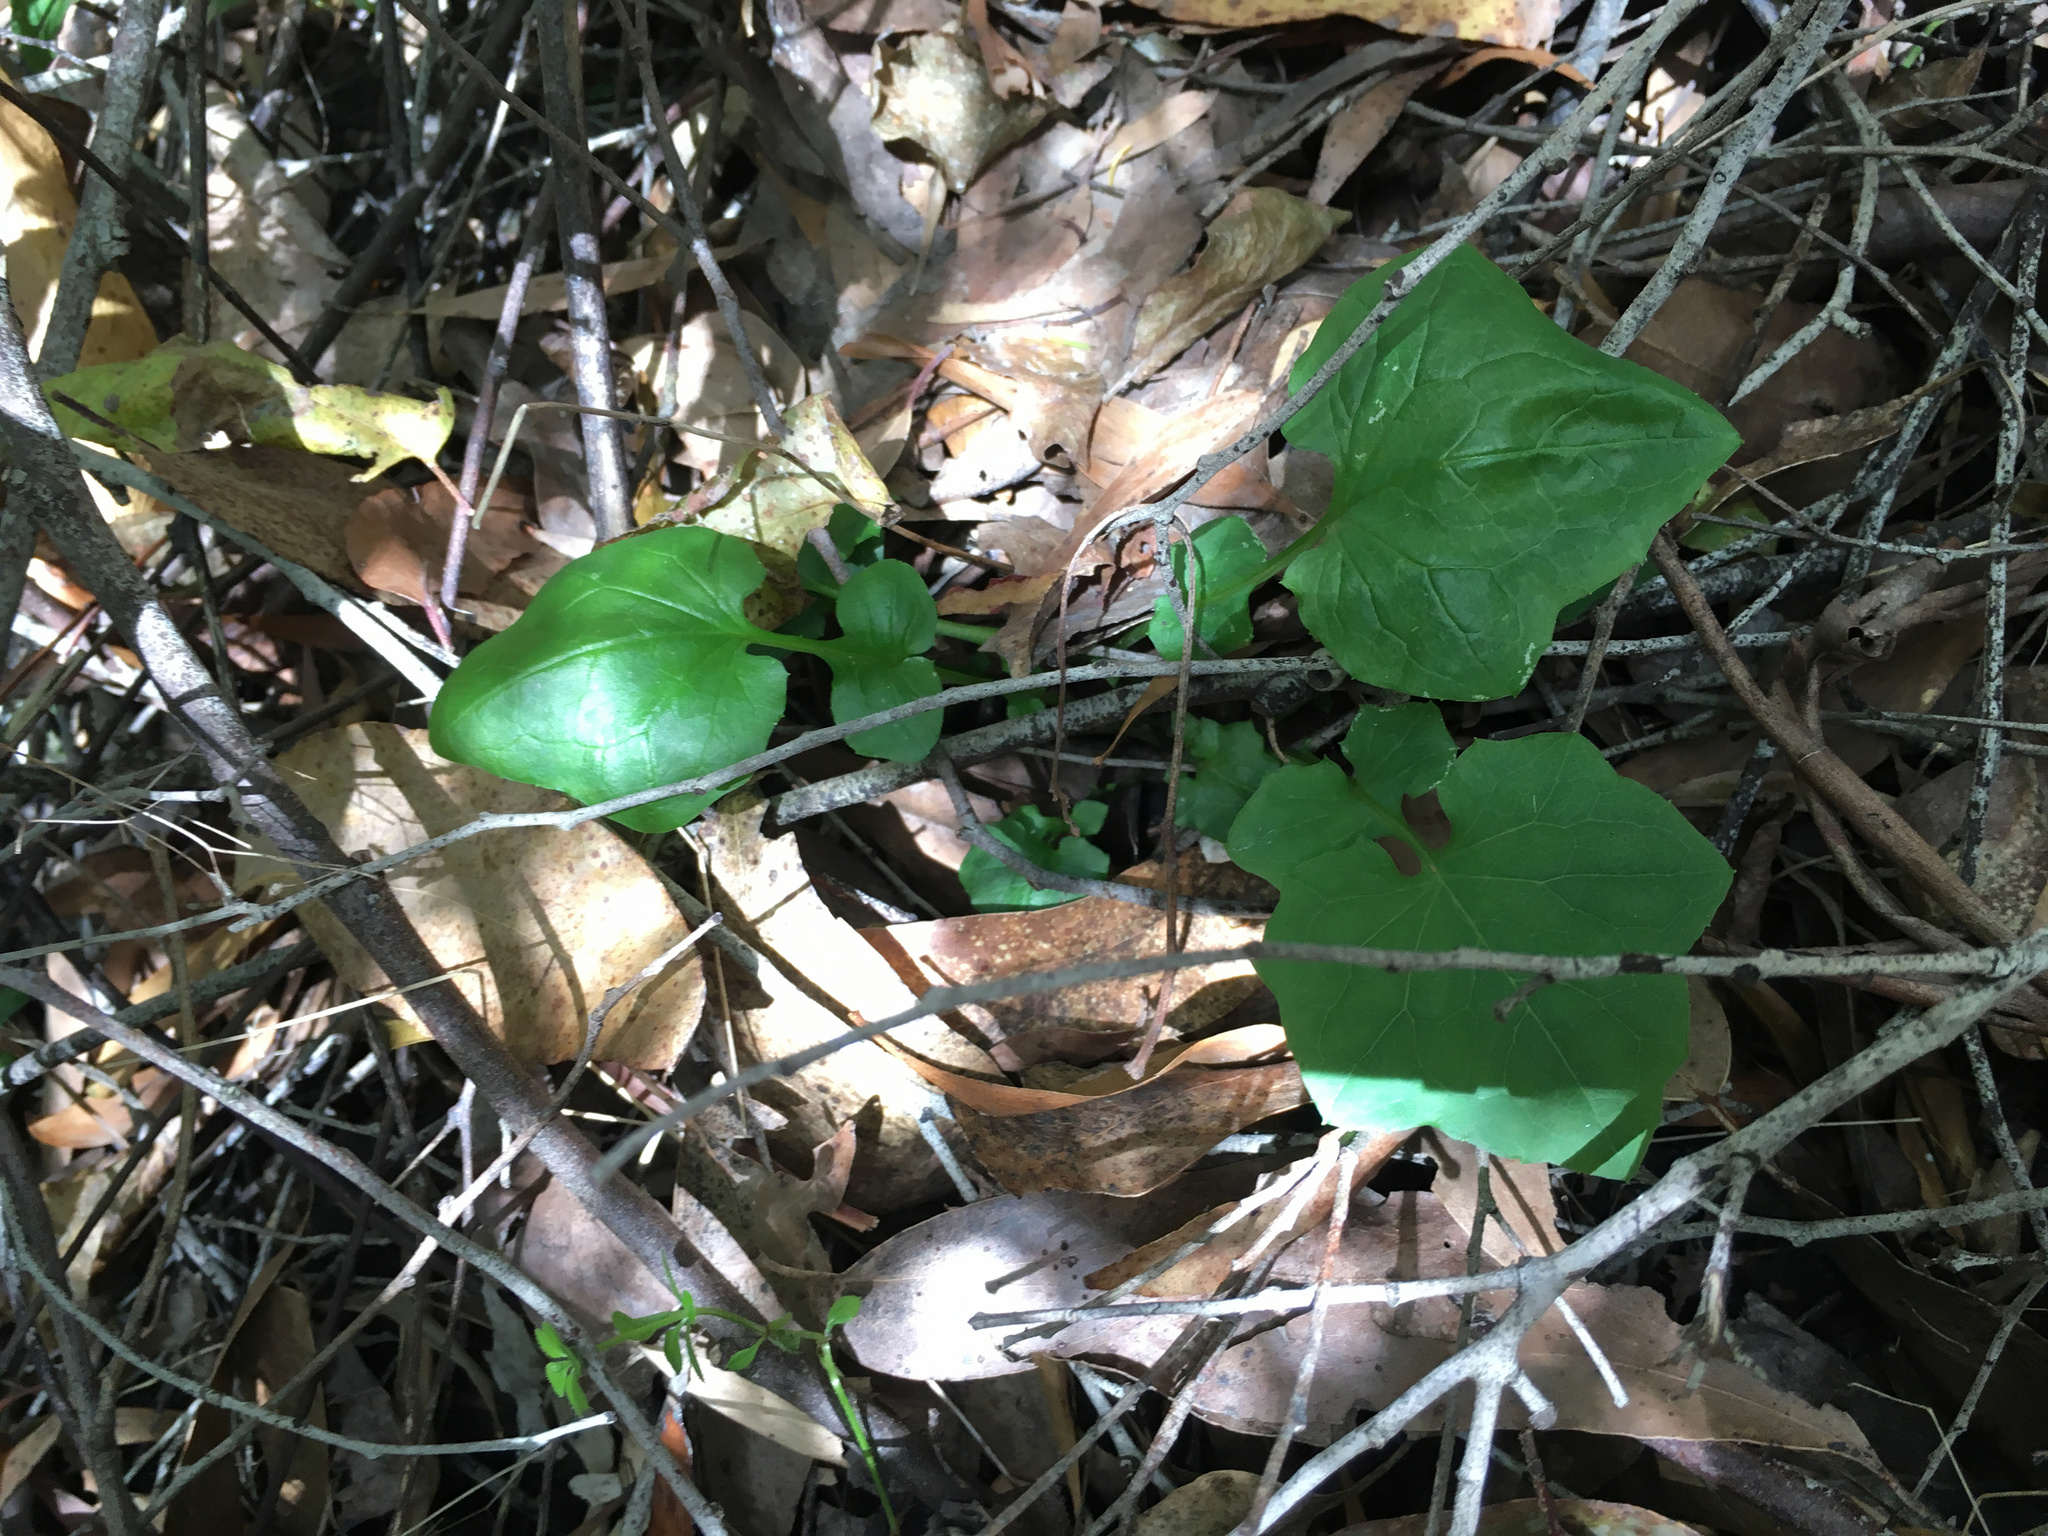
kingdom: Plantae
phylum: Tracheophyta
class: Magnoliopsida
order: Asterales
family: Asteraceae
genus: Mycelis
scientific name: Mycelis muralis
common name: Wall lettuce
